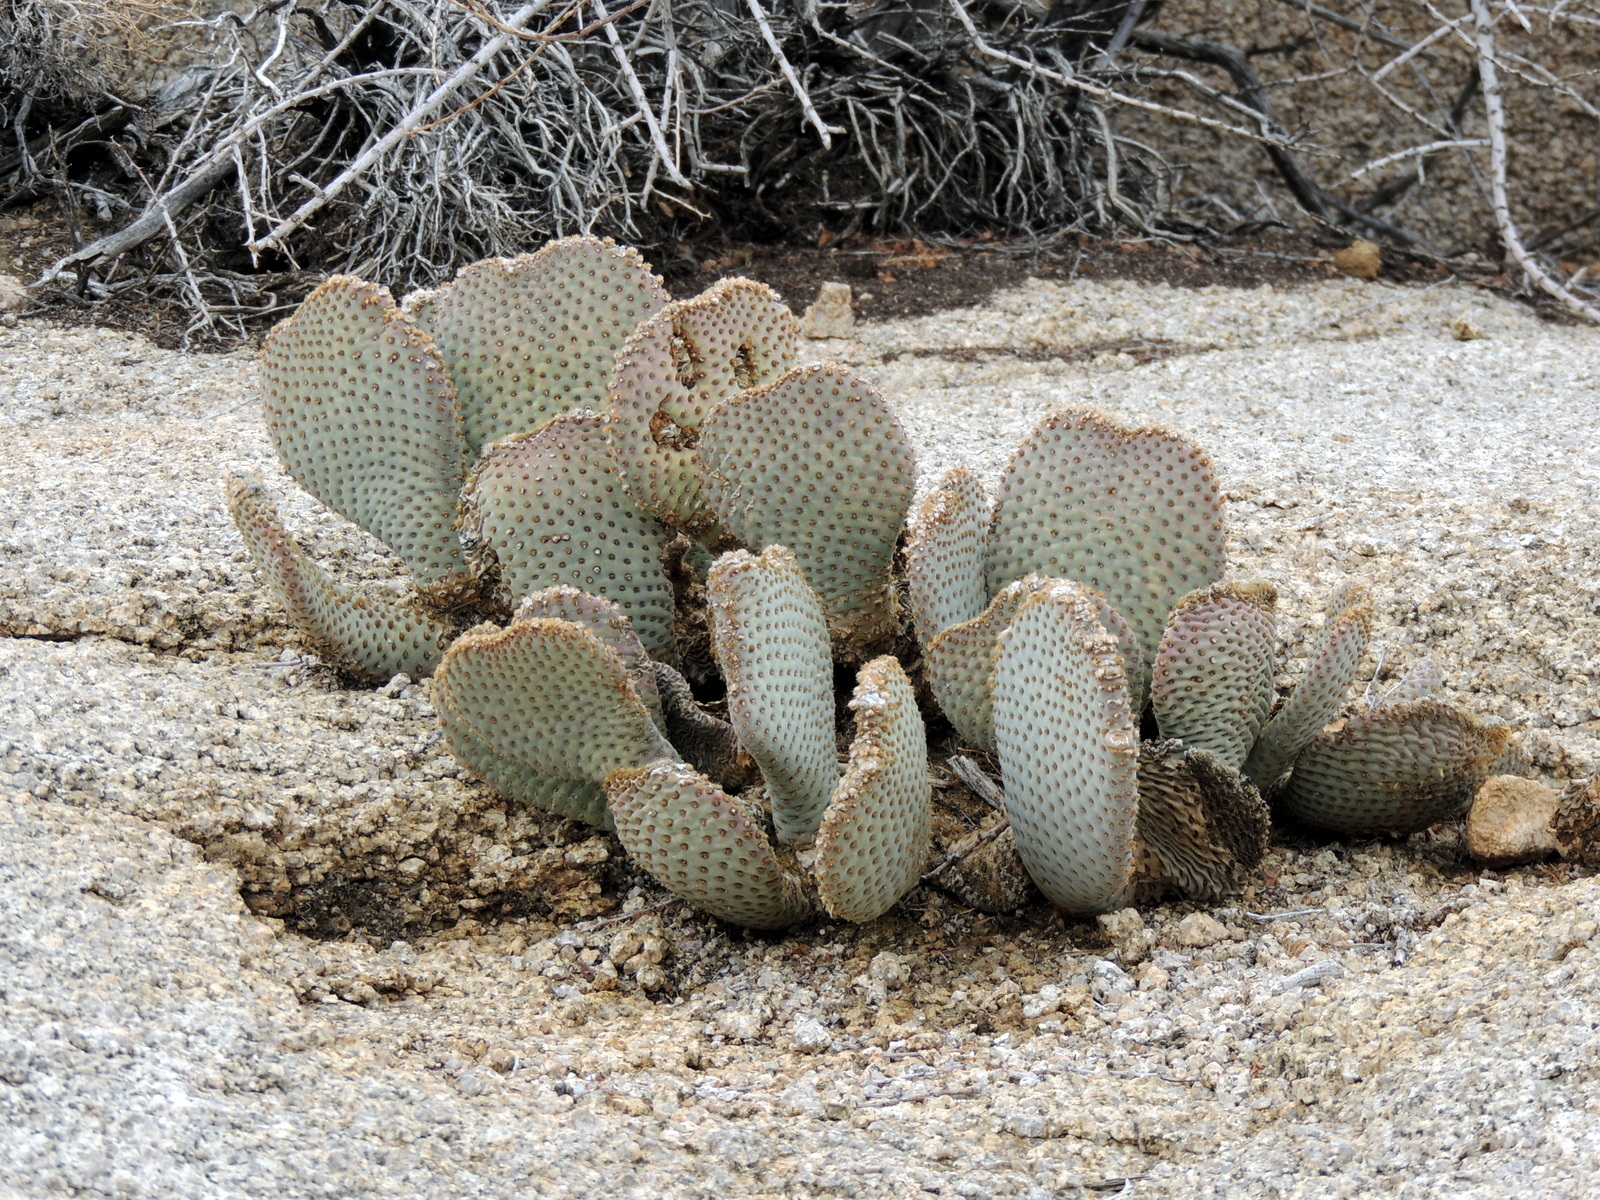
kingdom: Plantae
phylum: Tracheophyta
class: Magnoliopsida
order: Caryophyllales
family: Cactaceae
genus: Opuntia
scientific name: Opuntia basilaris
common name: Beavertail prickly-pear
